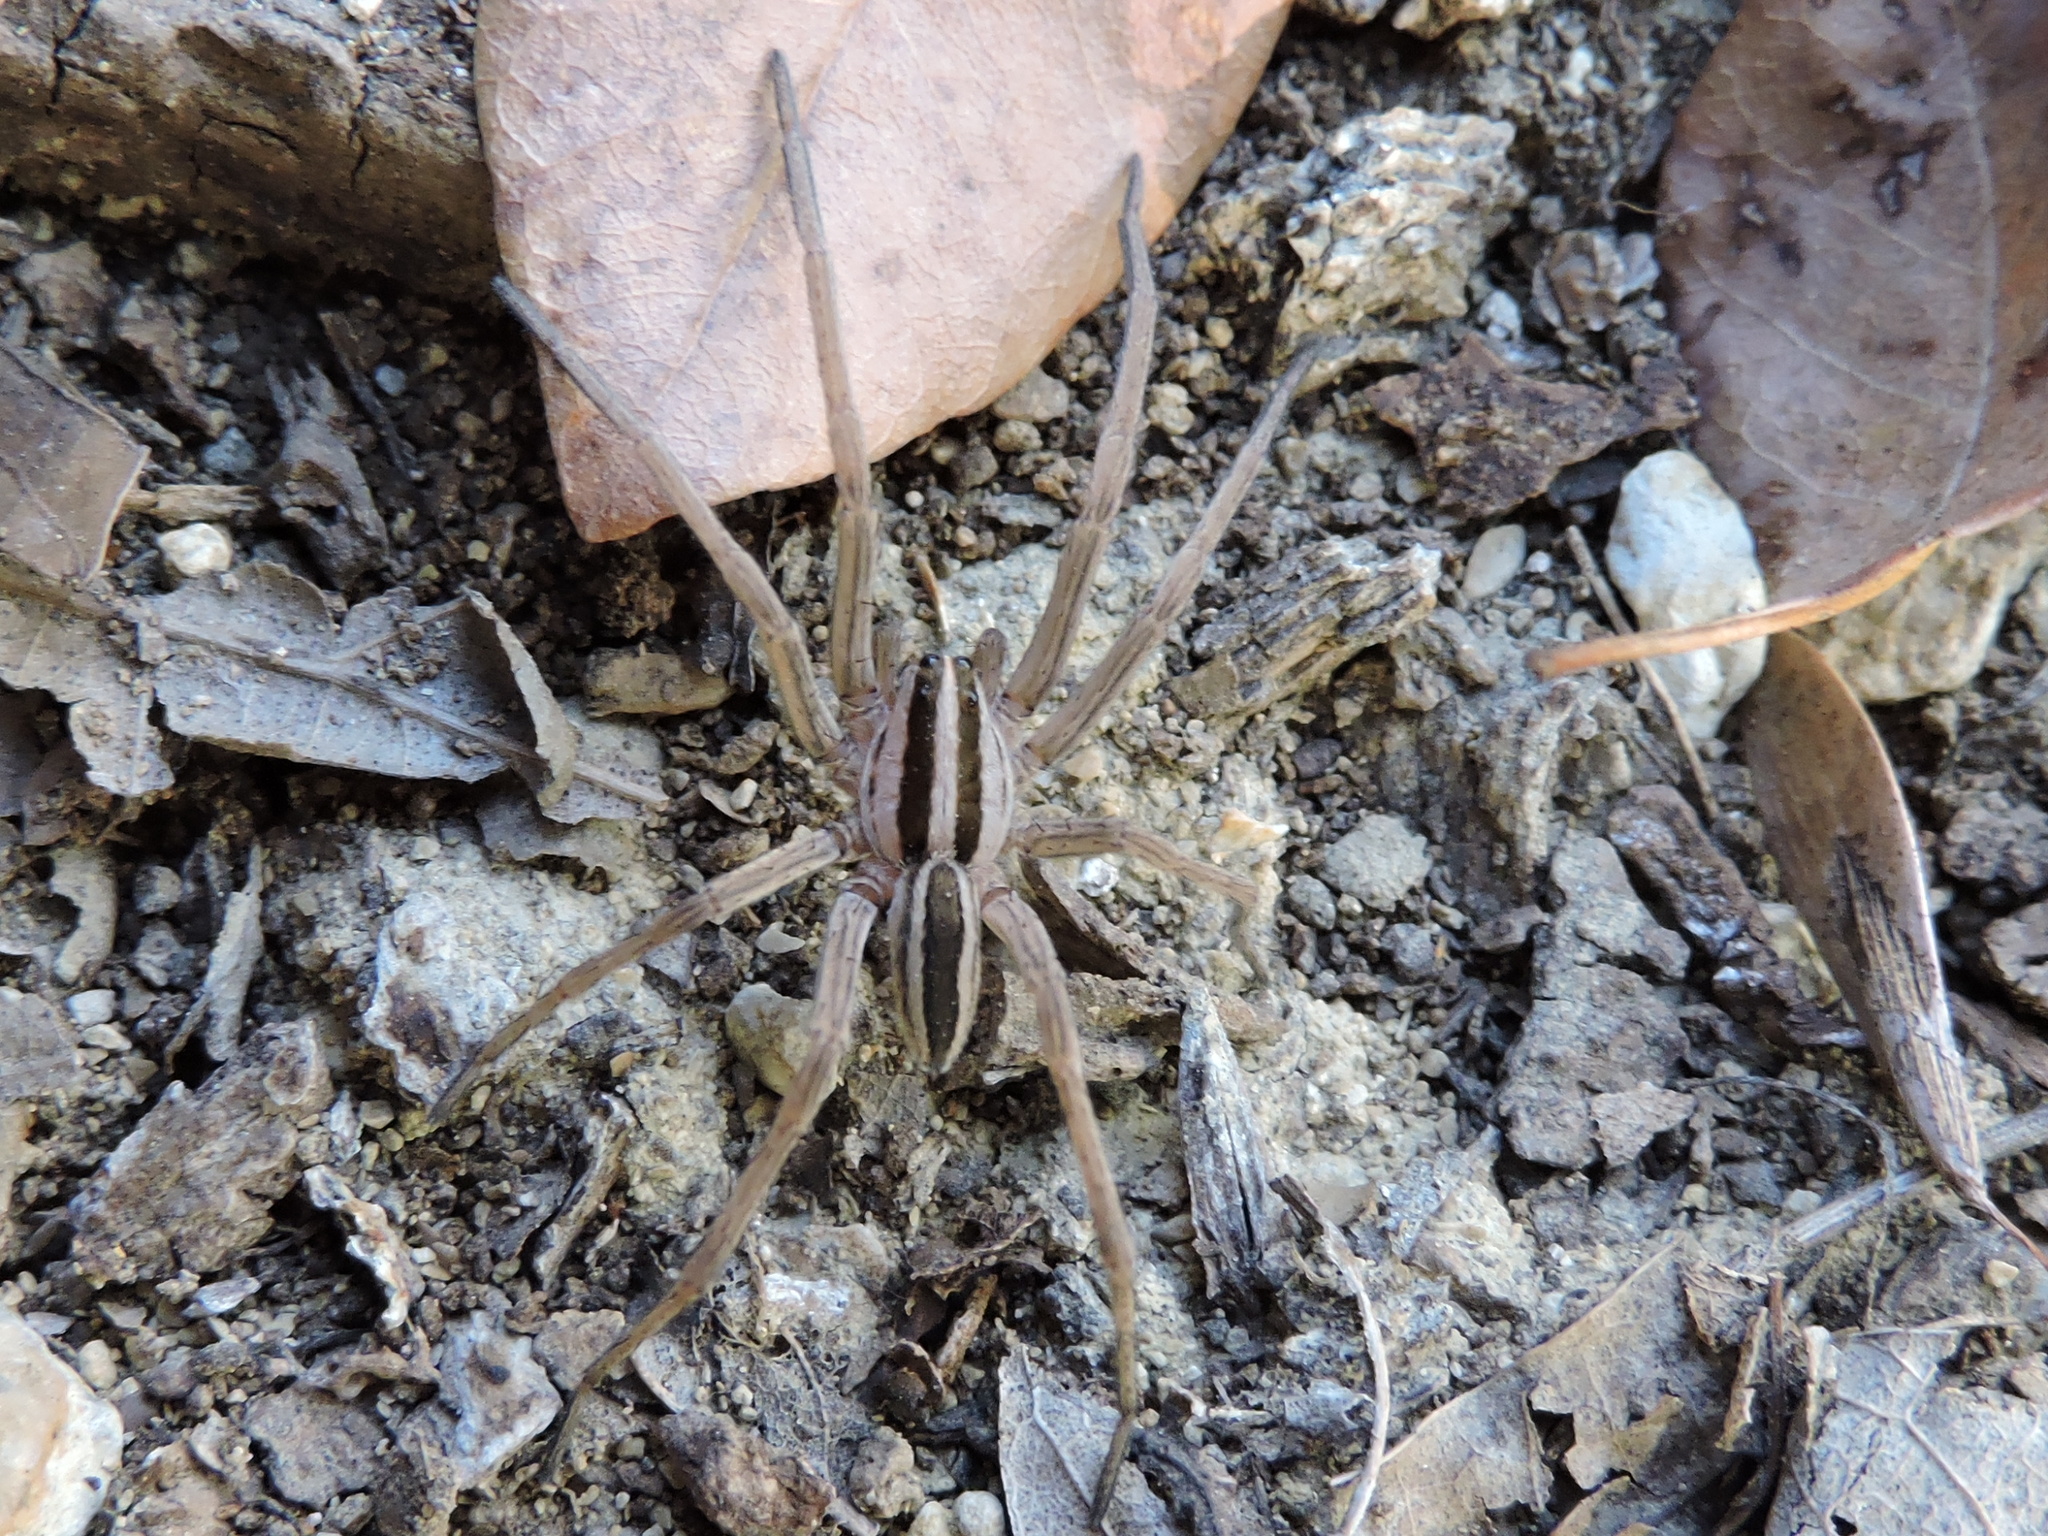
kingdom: Animalia
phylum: Arthropoda
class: Arachnida
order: Araneae
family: Lycosidae
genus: Rabidosa
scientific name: Rabidosa rabida
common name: Rabid wolf spider
